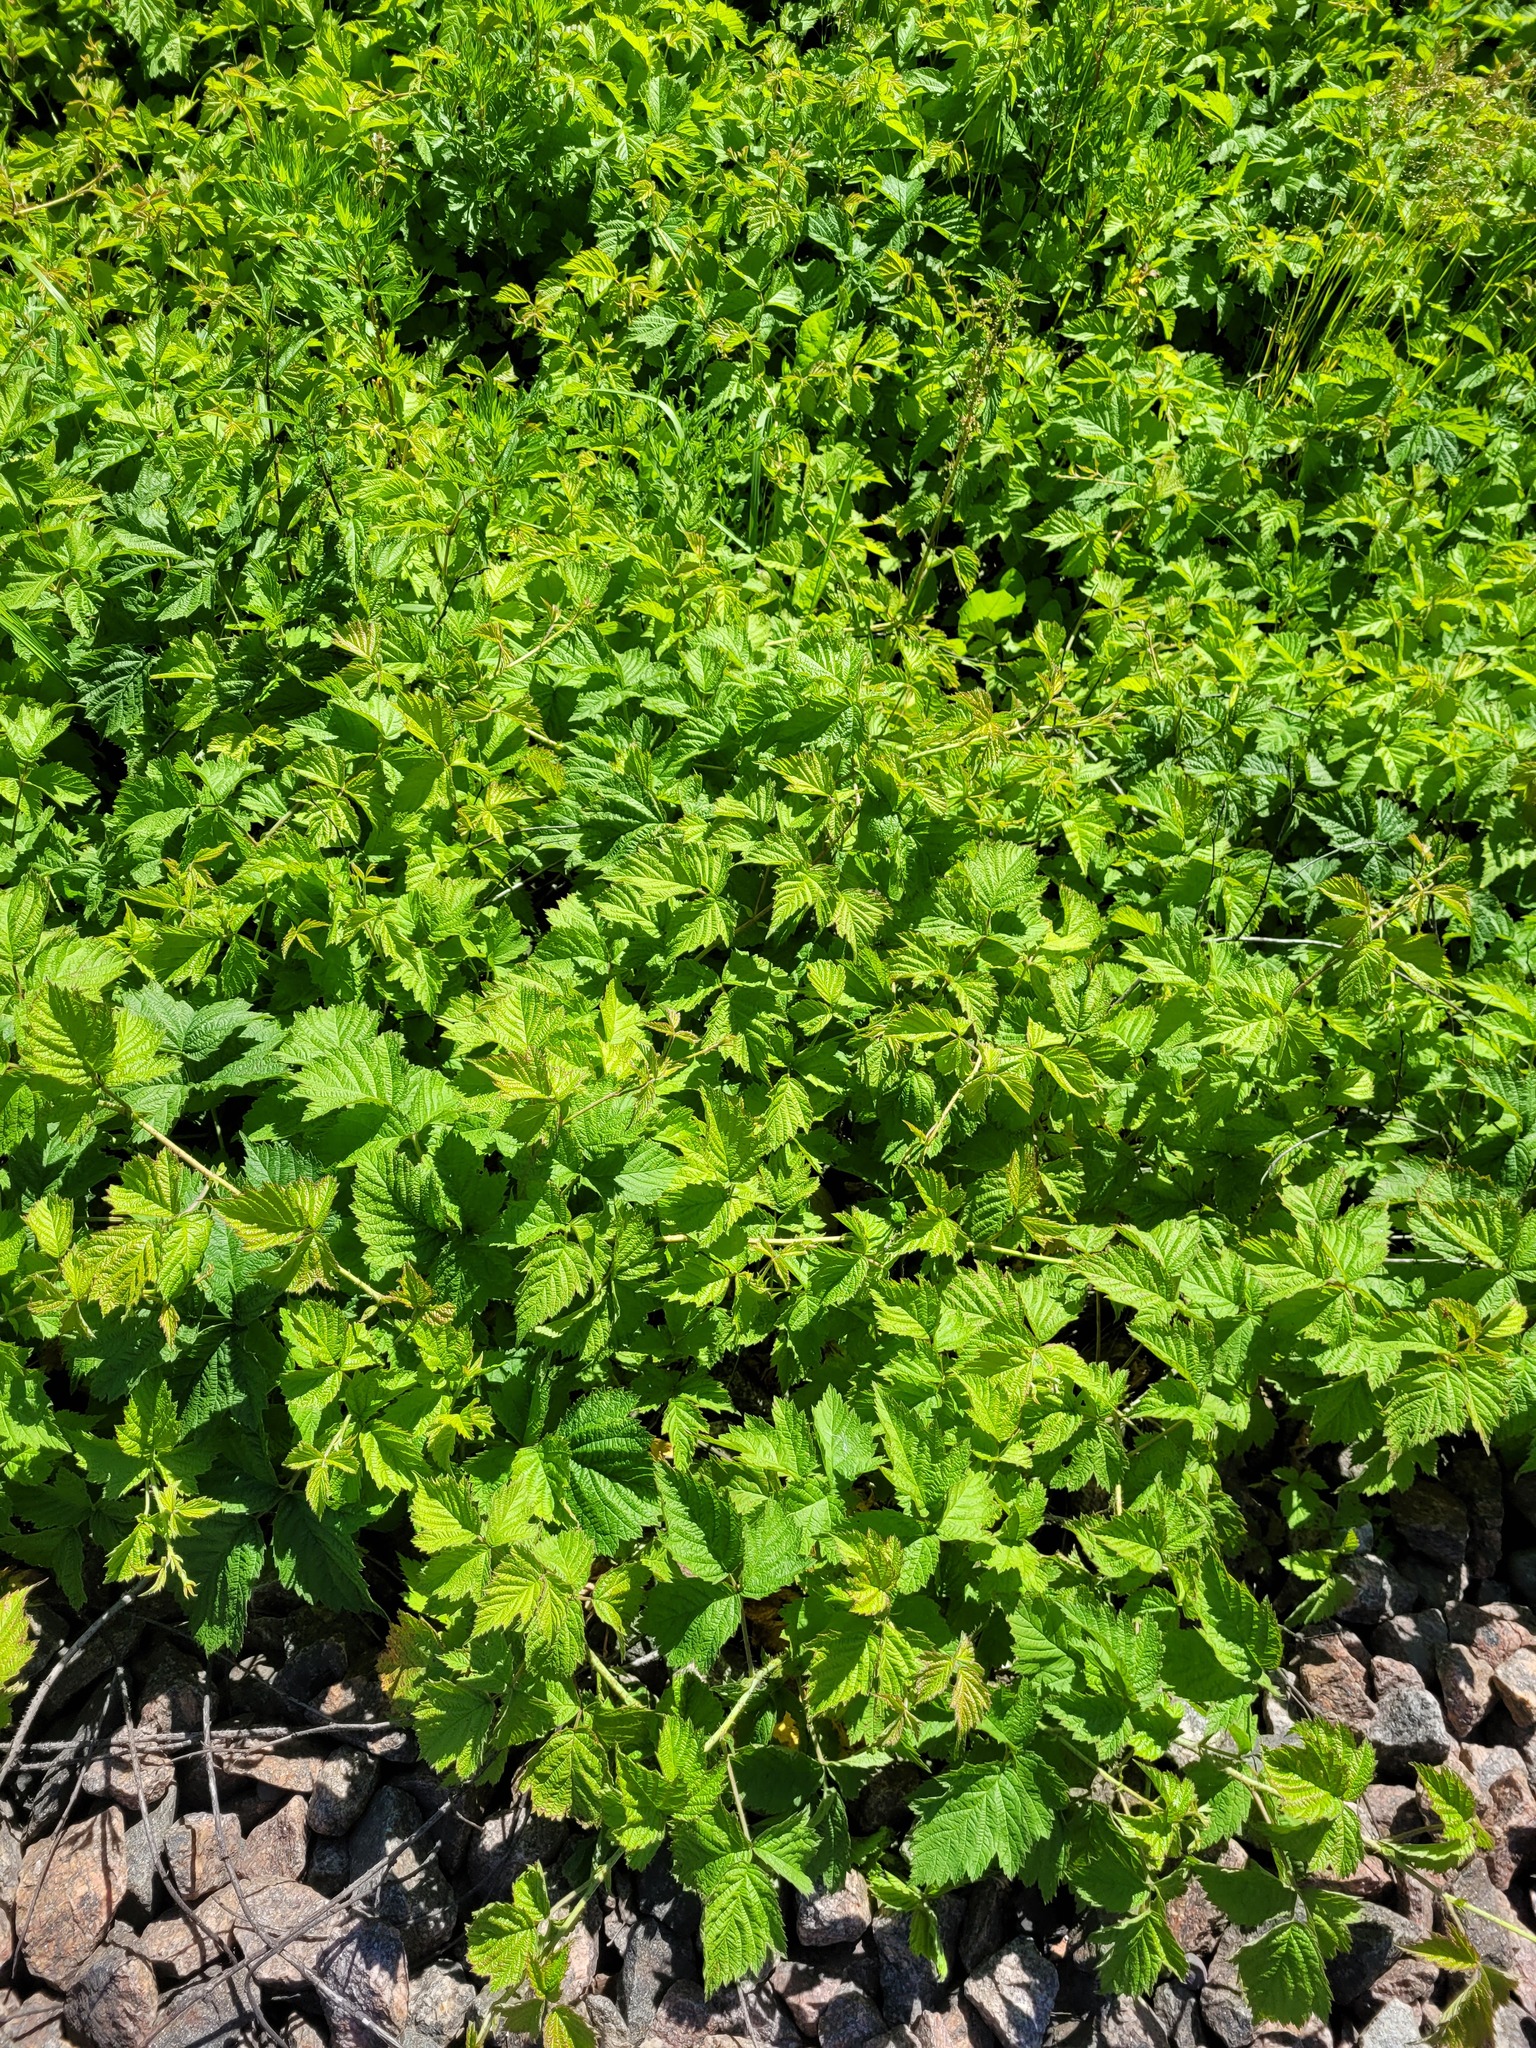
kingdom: Plantae
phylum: Tracheophyta
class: Magnoliopsida
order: Rosales
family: Rosaceae
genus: Rubus
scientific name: Rubus caesius
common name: Dewberry
